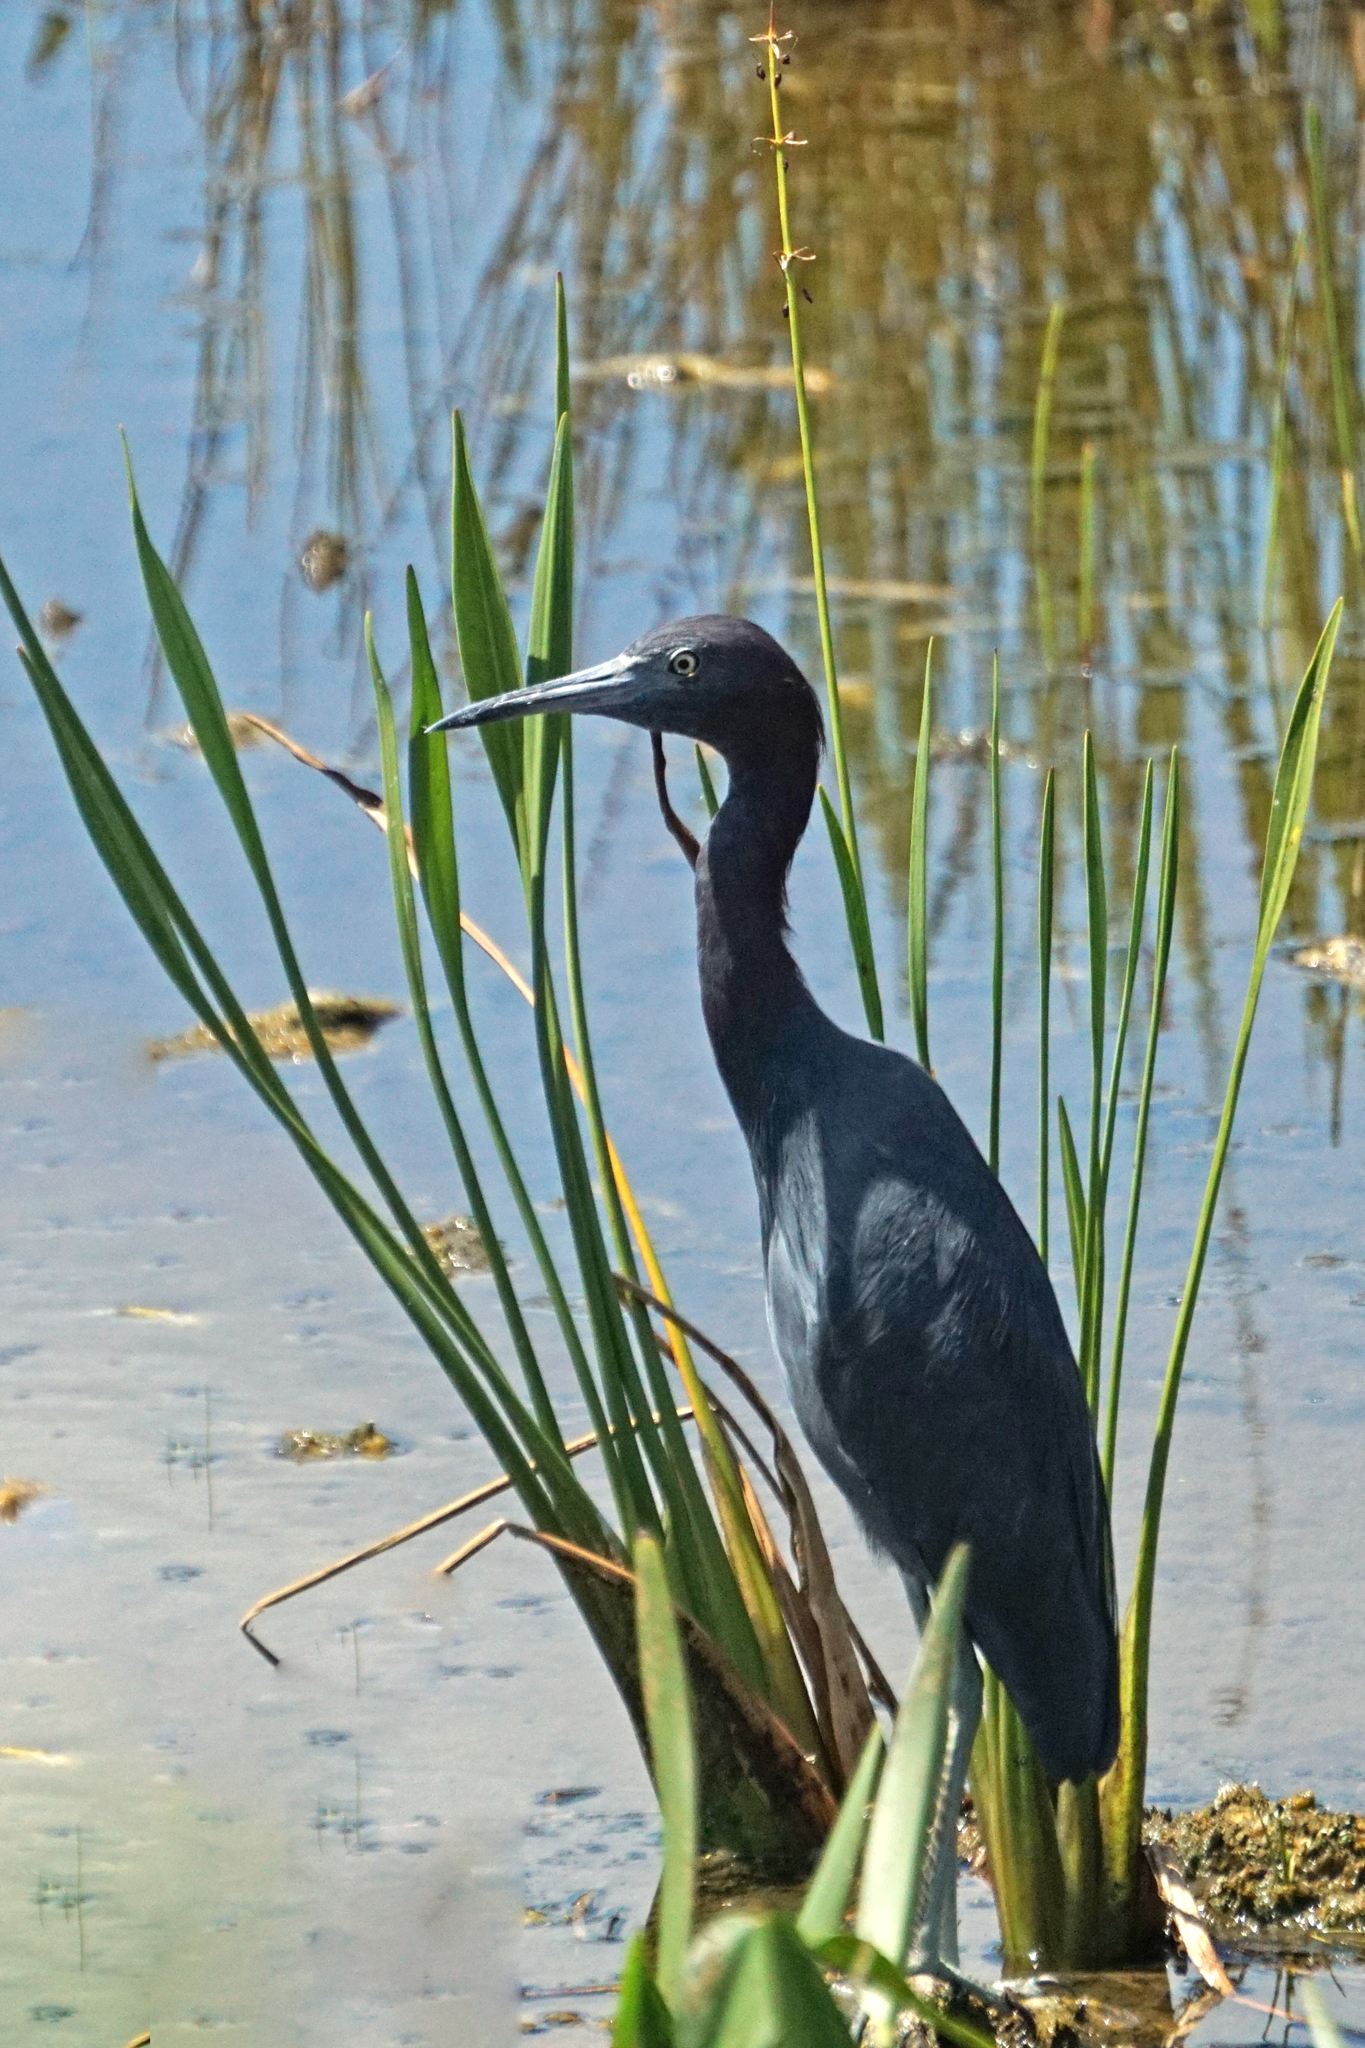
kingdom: Animalia
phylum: Chordata
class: Aves
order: Pelecaniformes
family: Ardeidae
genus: Egretta
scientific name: Egretta caerulea
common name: Little blue heron
